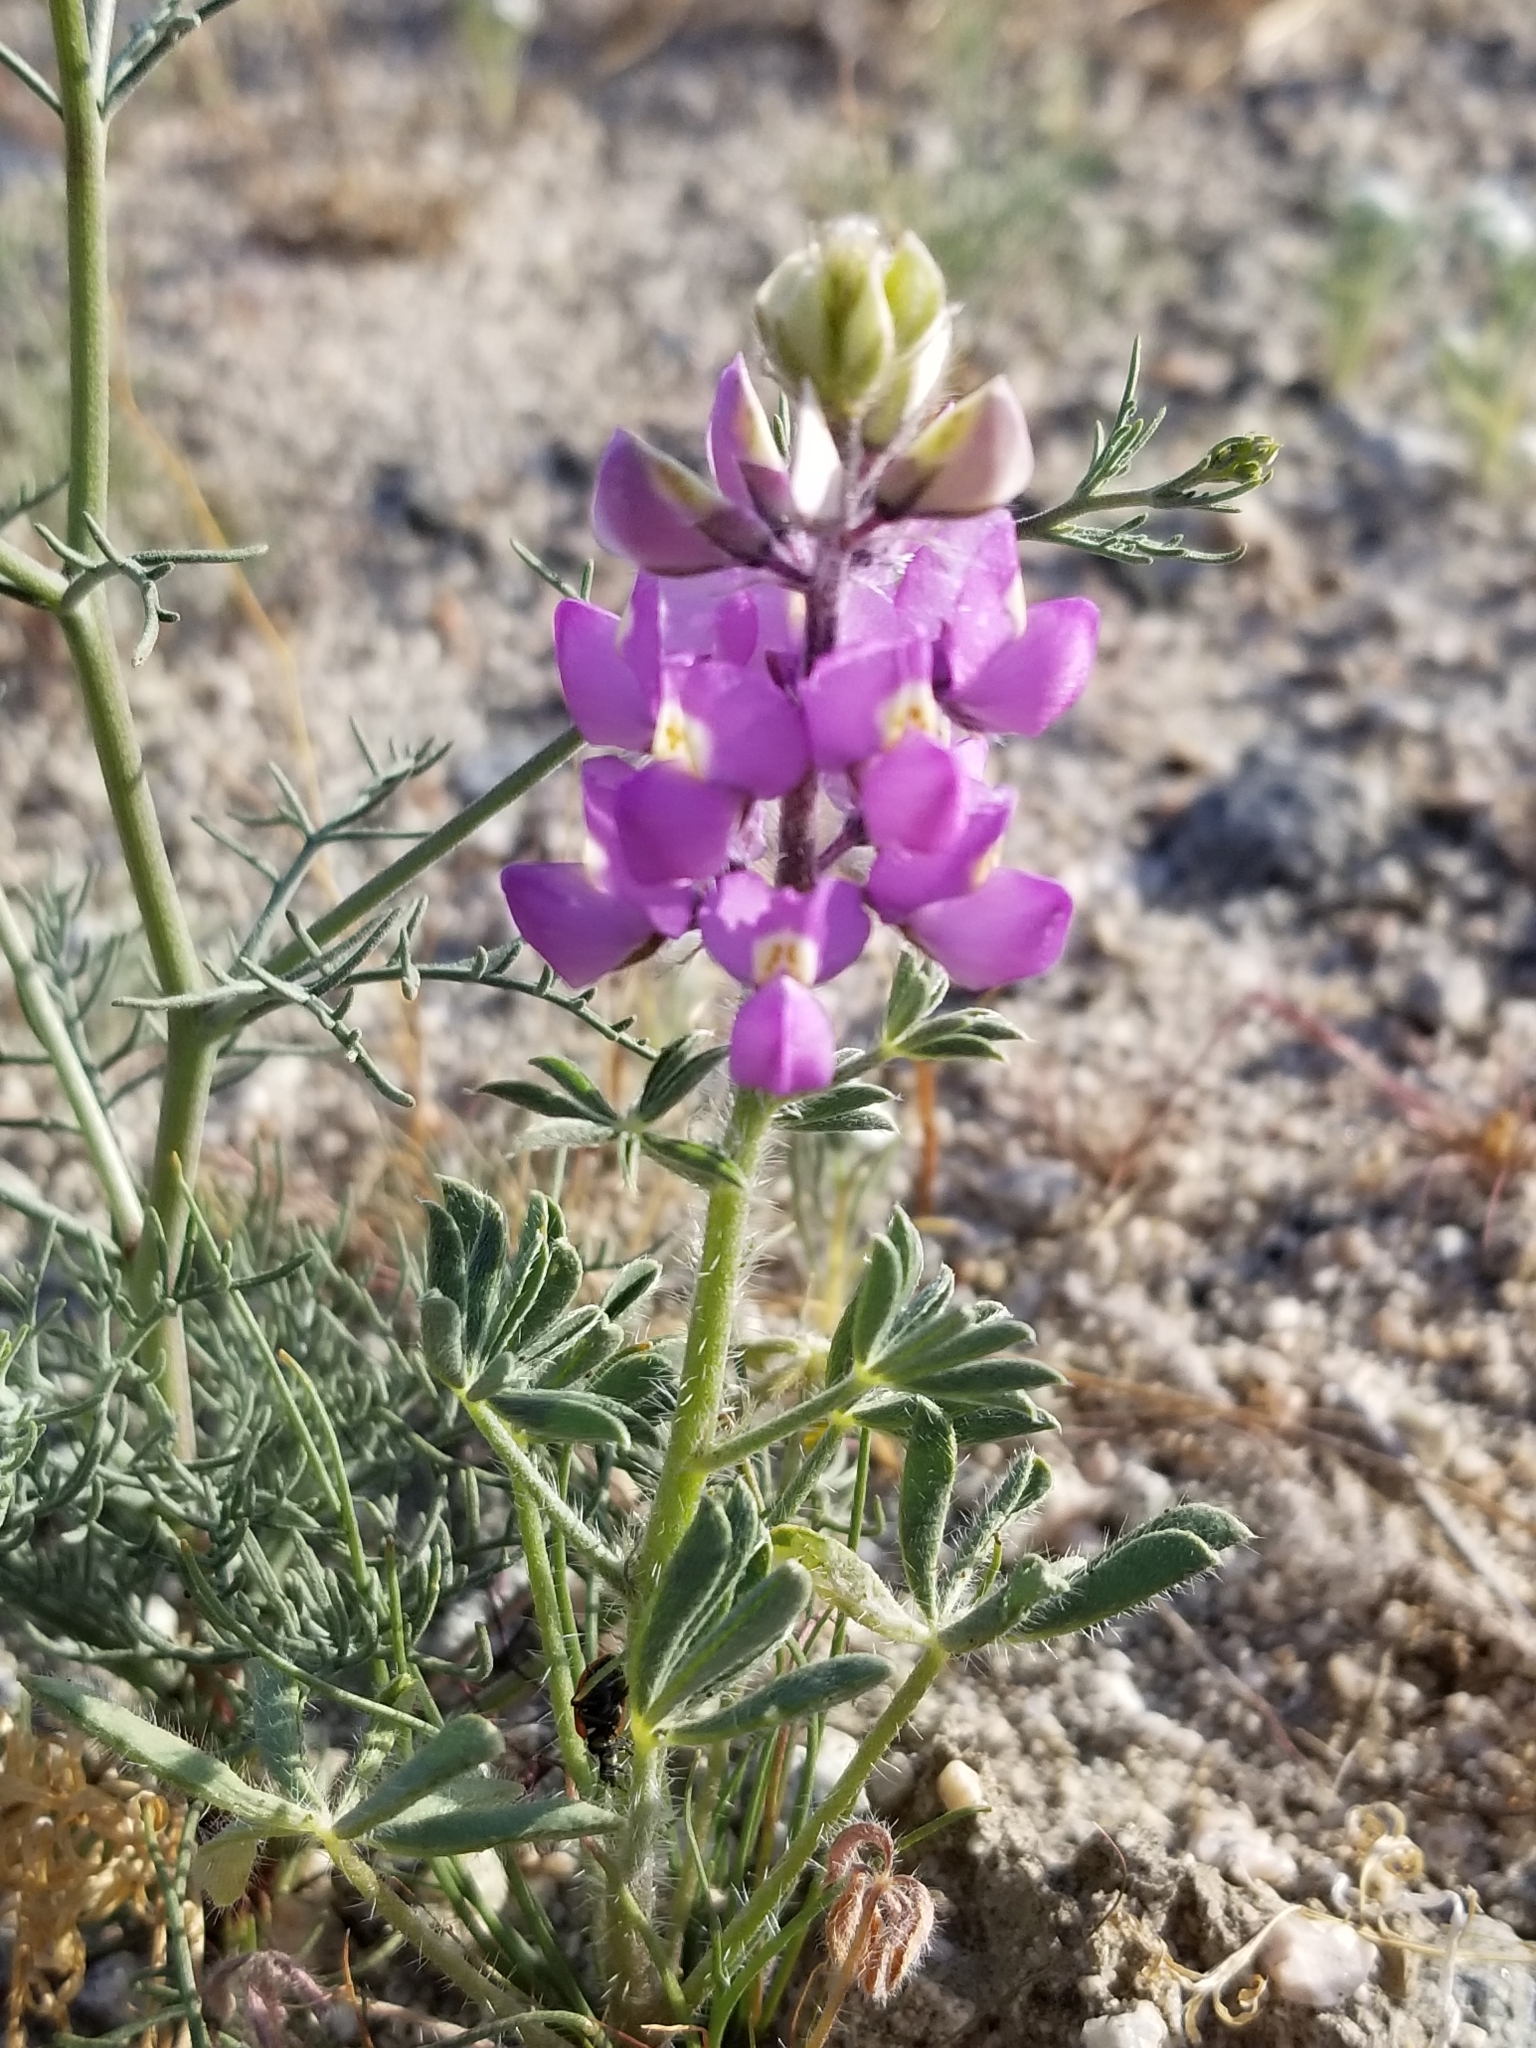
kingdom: Plantae
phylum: Tracheophyta
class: Magnoliopsida
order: Fabales
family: Fabaceae
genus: Lupinus
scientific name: Lupinus arizonicus
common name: Arizona lupine
